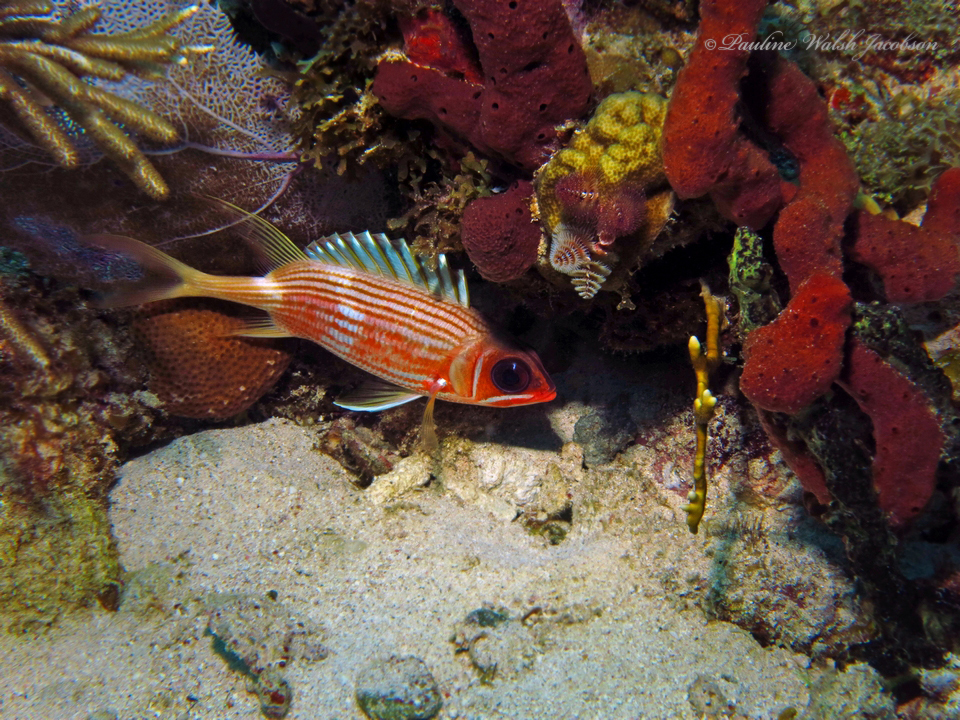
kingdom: Animalia
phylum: Chordata
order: Beryciformes
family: Holocentridae
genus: Holocentrus
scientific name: Holocentrus rufus
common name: Longspine squirrelfish
